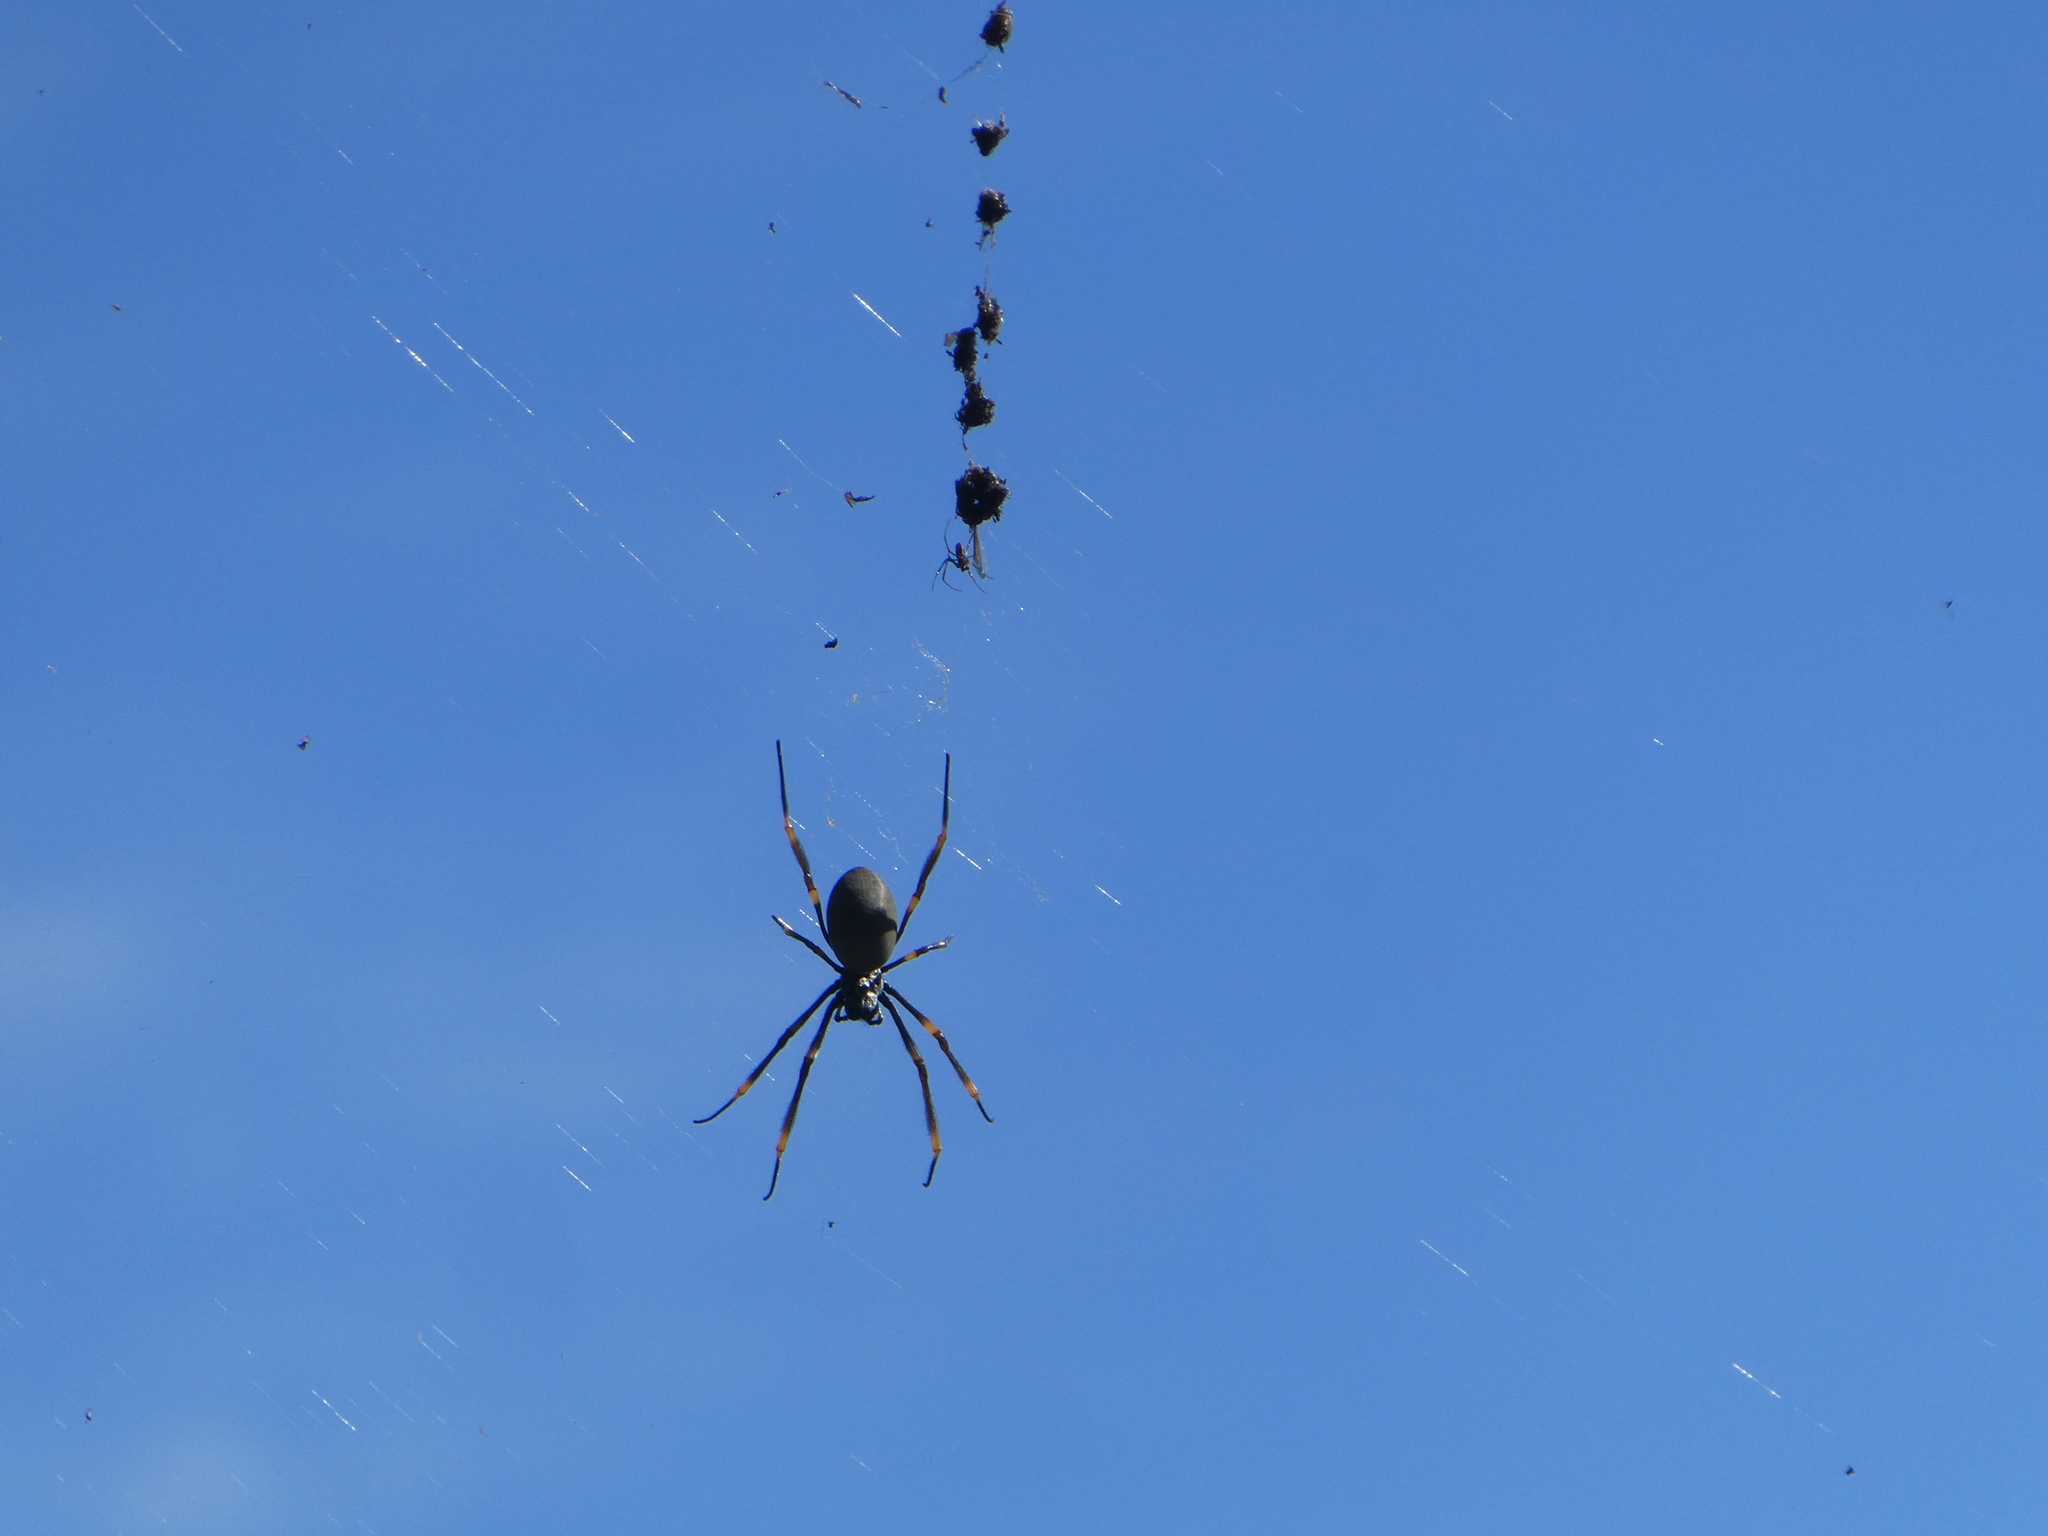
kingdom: Animalia
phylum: Arthropoda
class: Arachnida
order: Araneae
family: Araneidae
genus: Trichonephila
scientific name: Trichonephila plumipes
